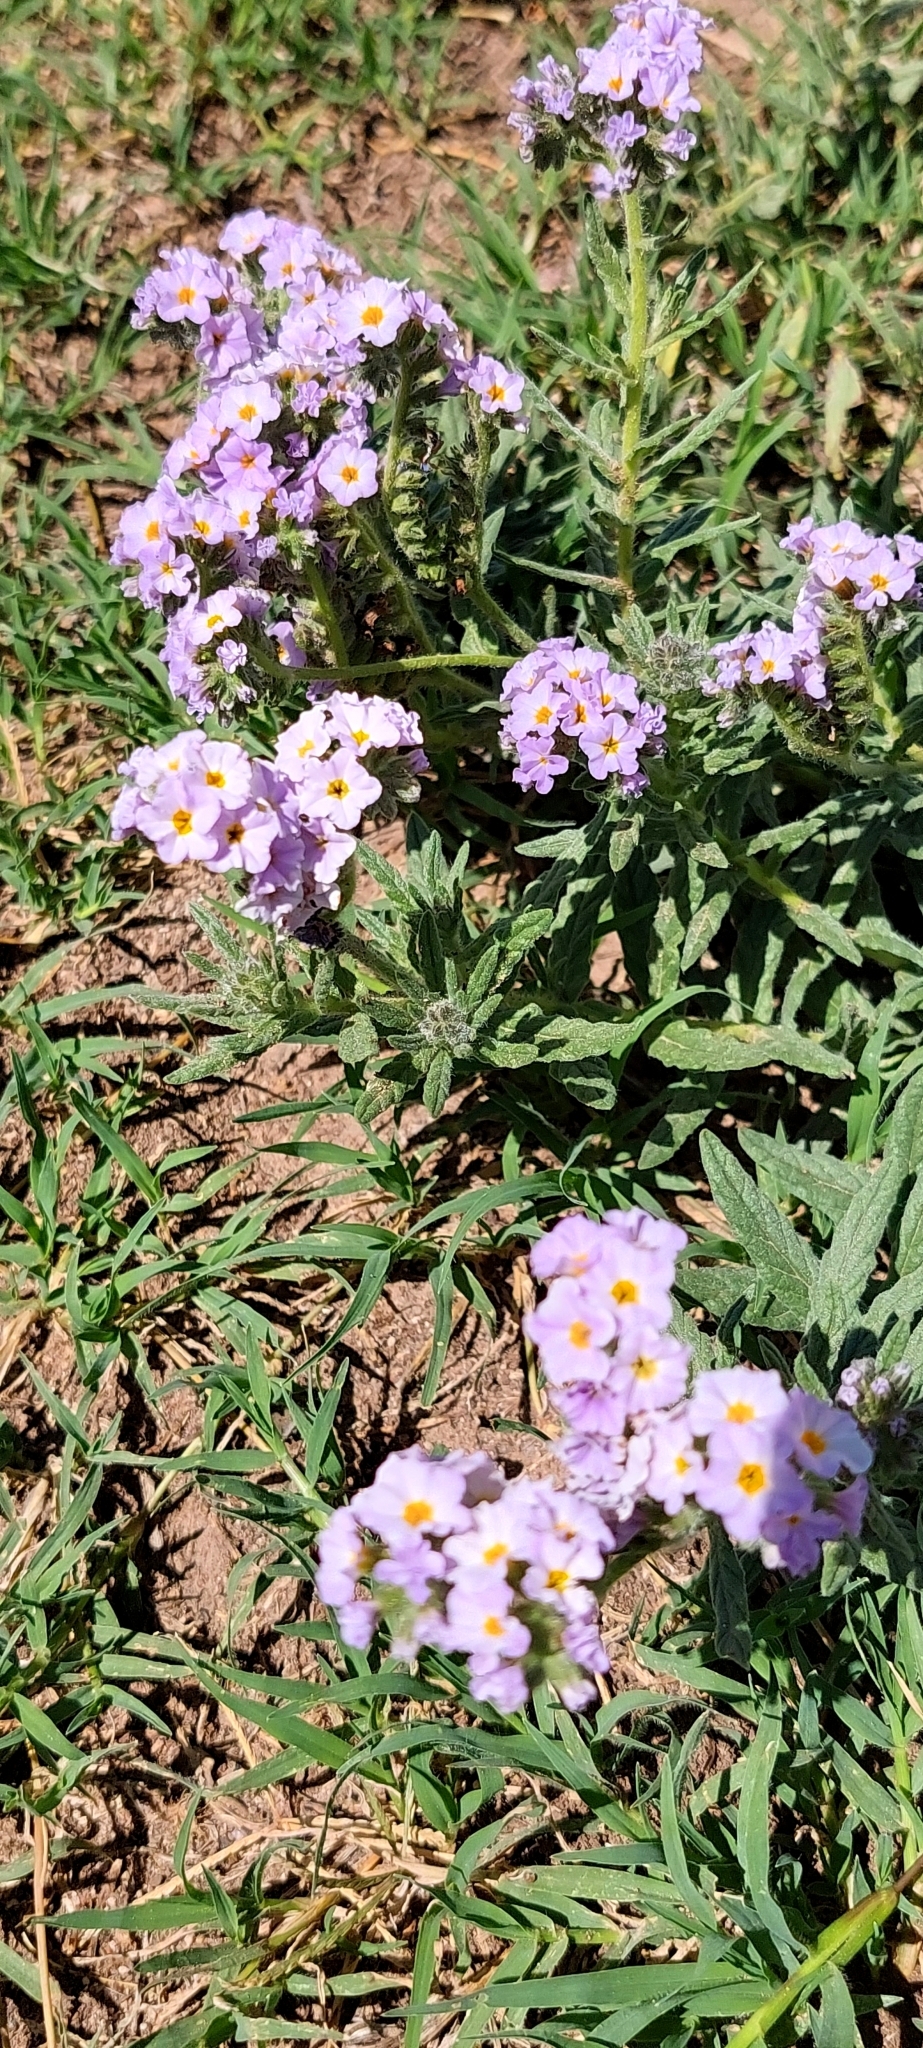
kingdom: Plantae
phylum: Tracheophyta
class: Magnoliopsida
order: Boraginales
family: Heliotropiaceae
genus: Heliotropium
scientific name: Heliotropium amplexicaule
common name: Clasping heliotrope
